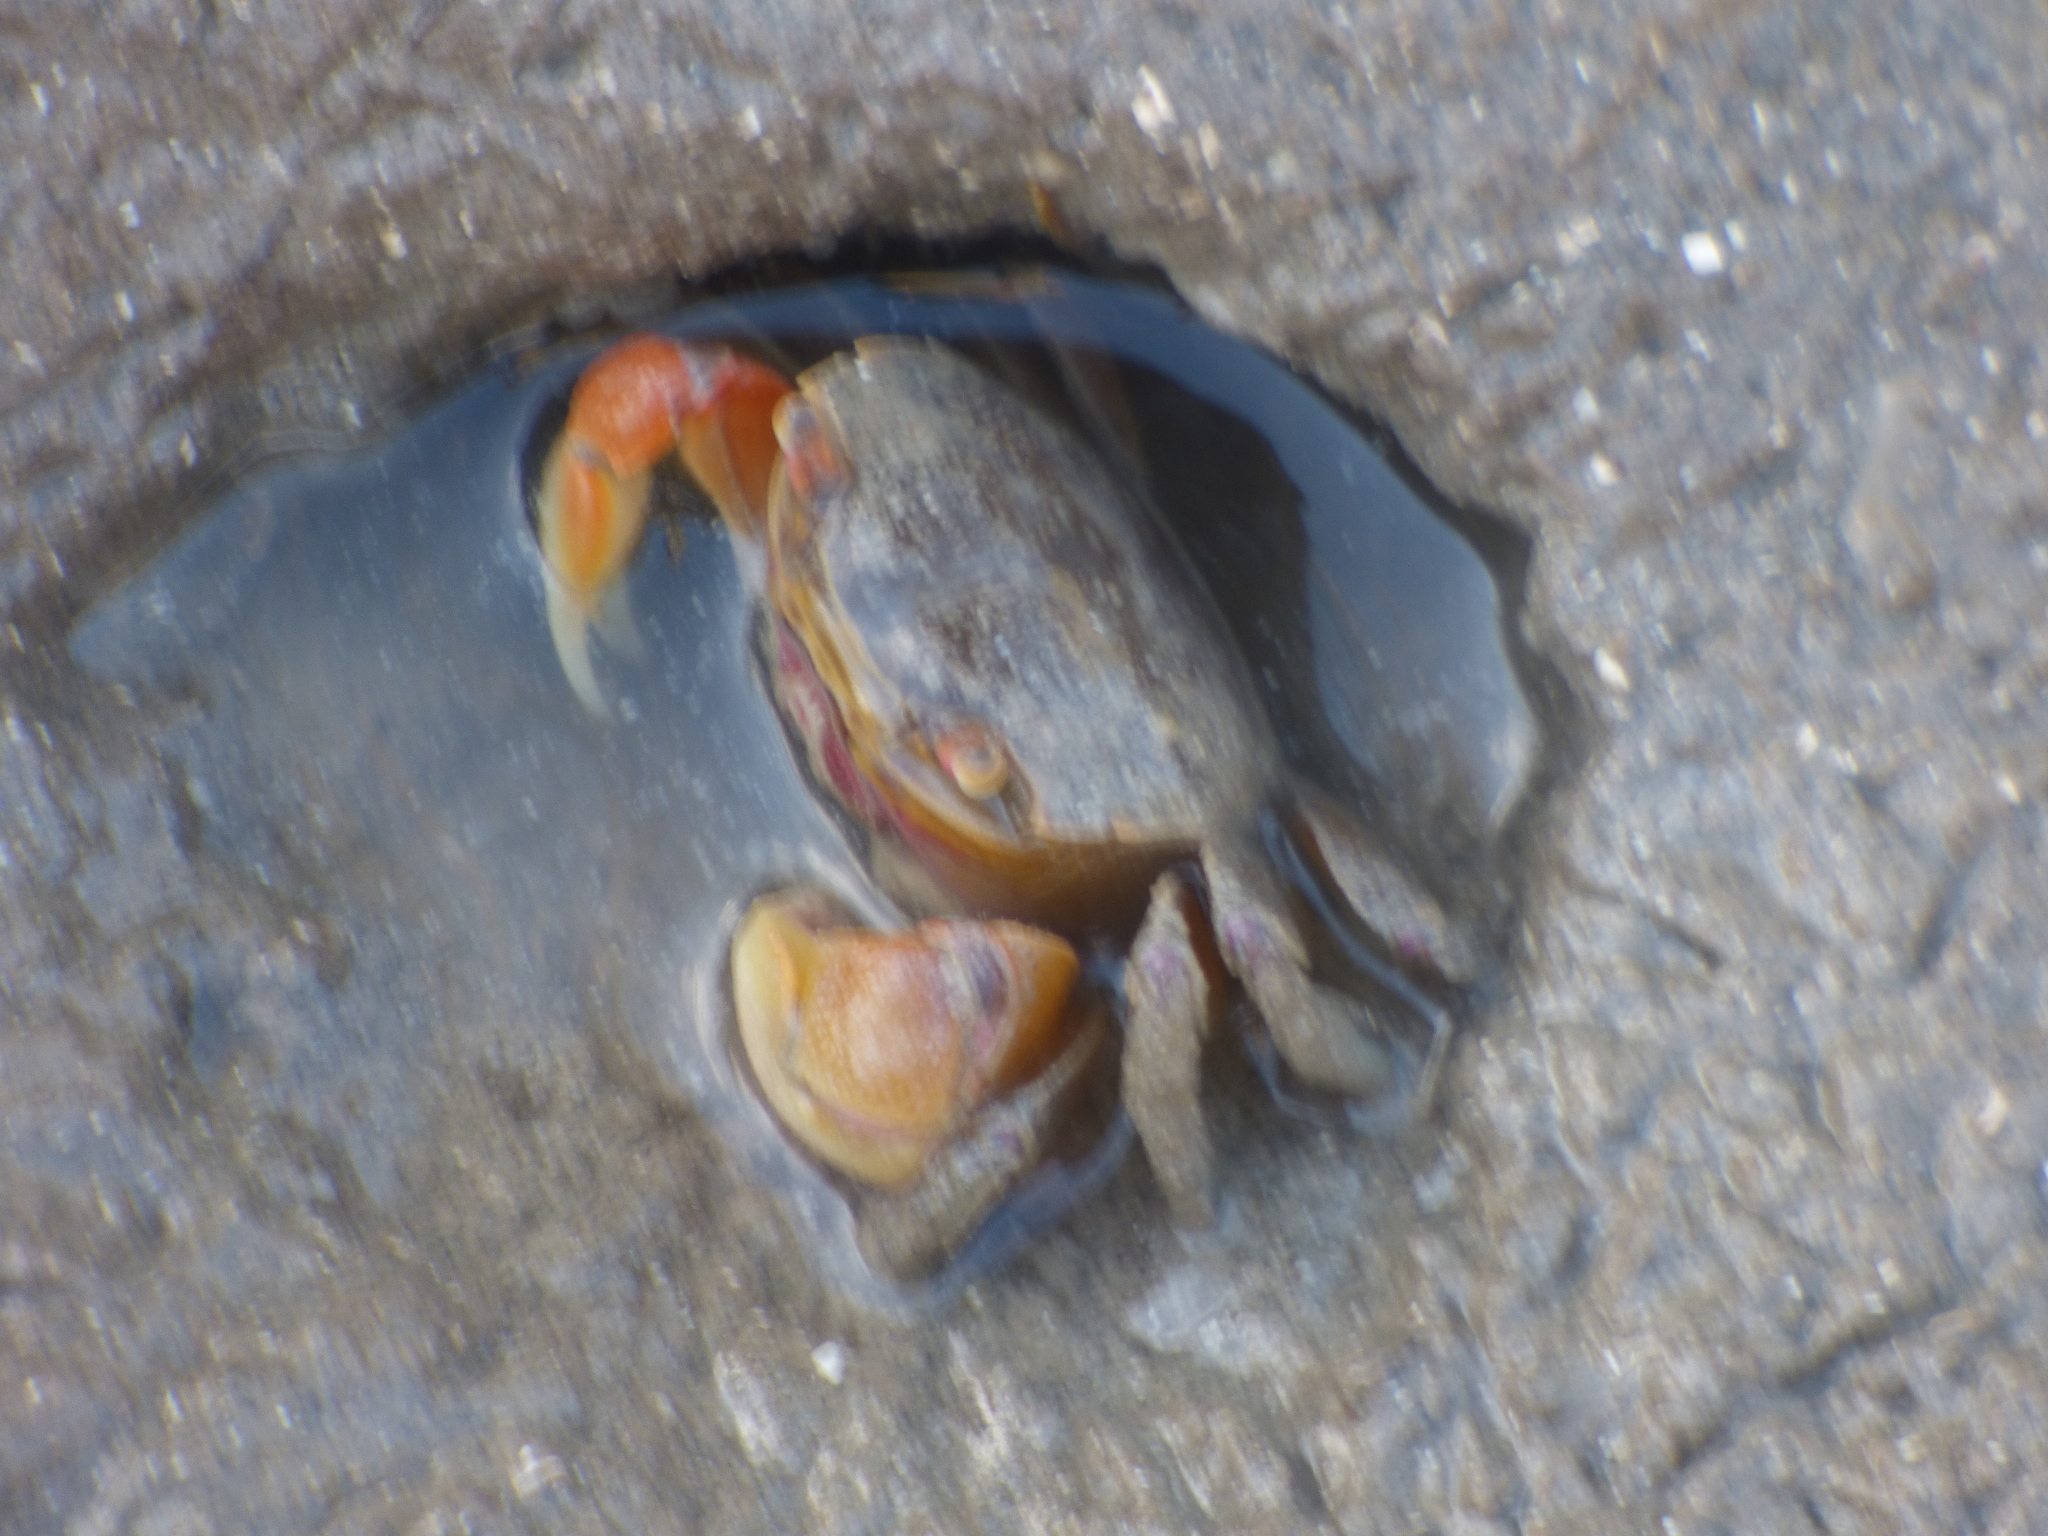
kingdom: Animalia
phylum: Arthropoda
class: Malacostraca
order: Decapoda
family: Varunidae
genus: Neohelice
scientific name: Neohelice granulata
